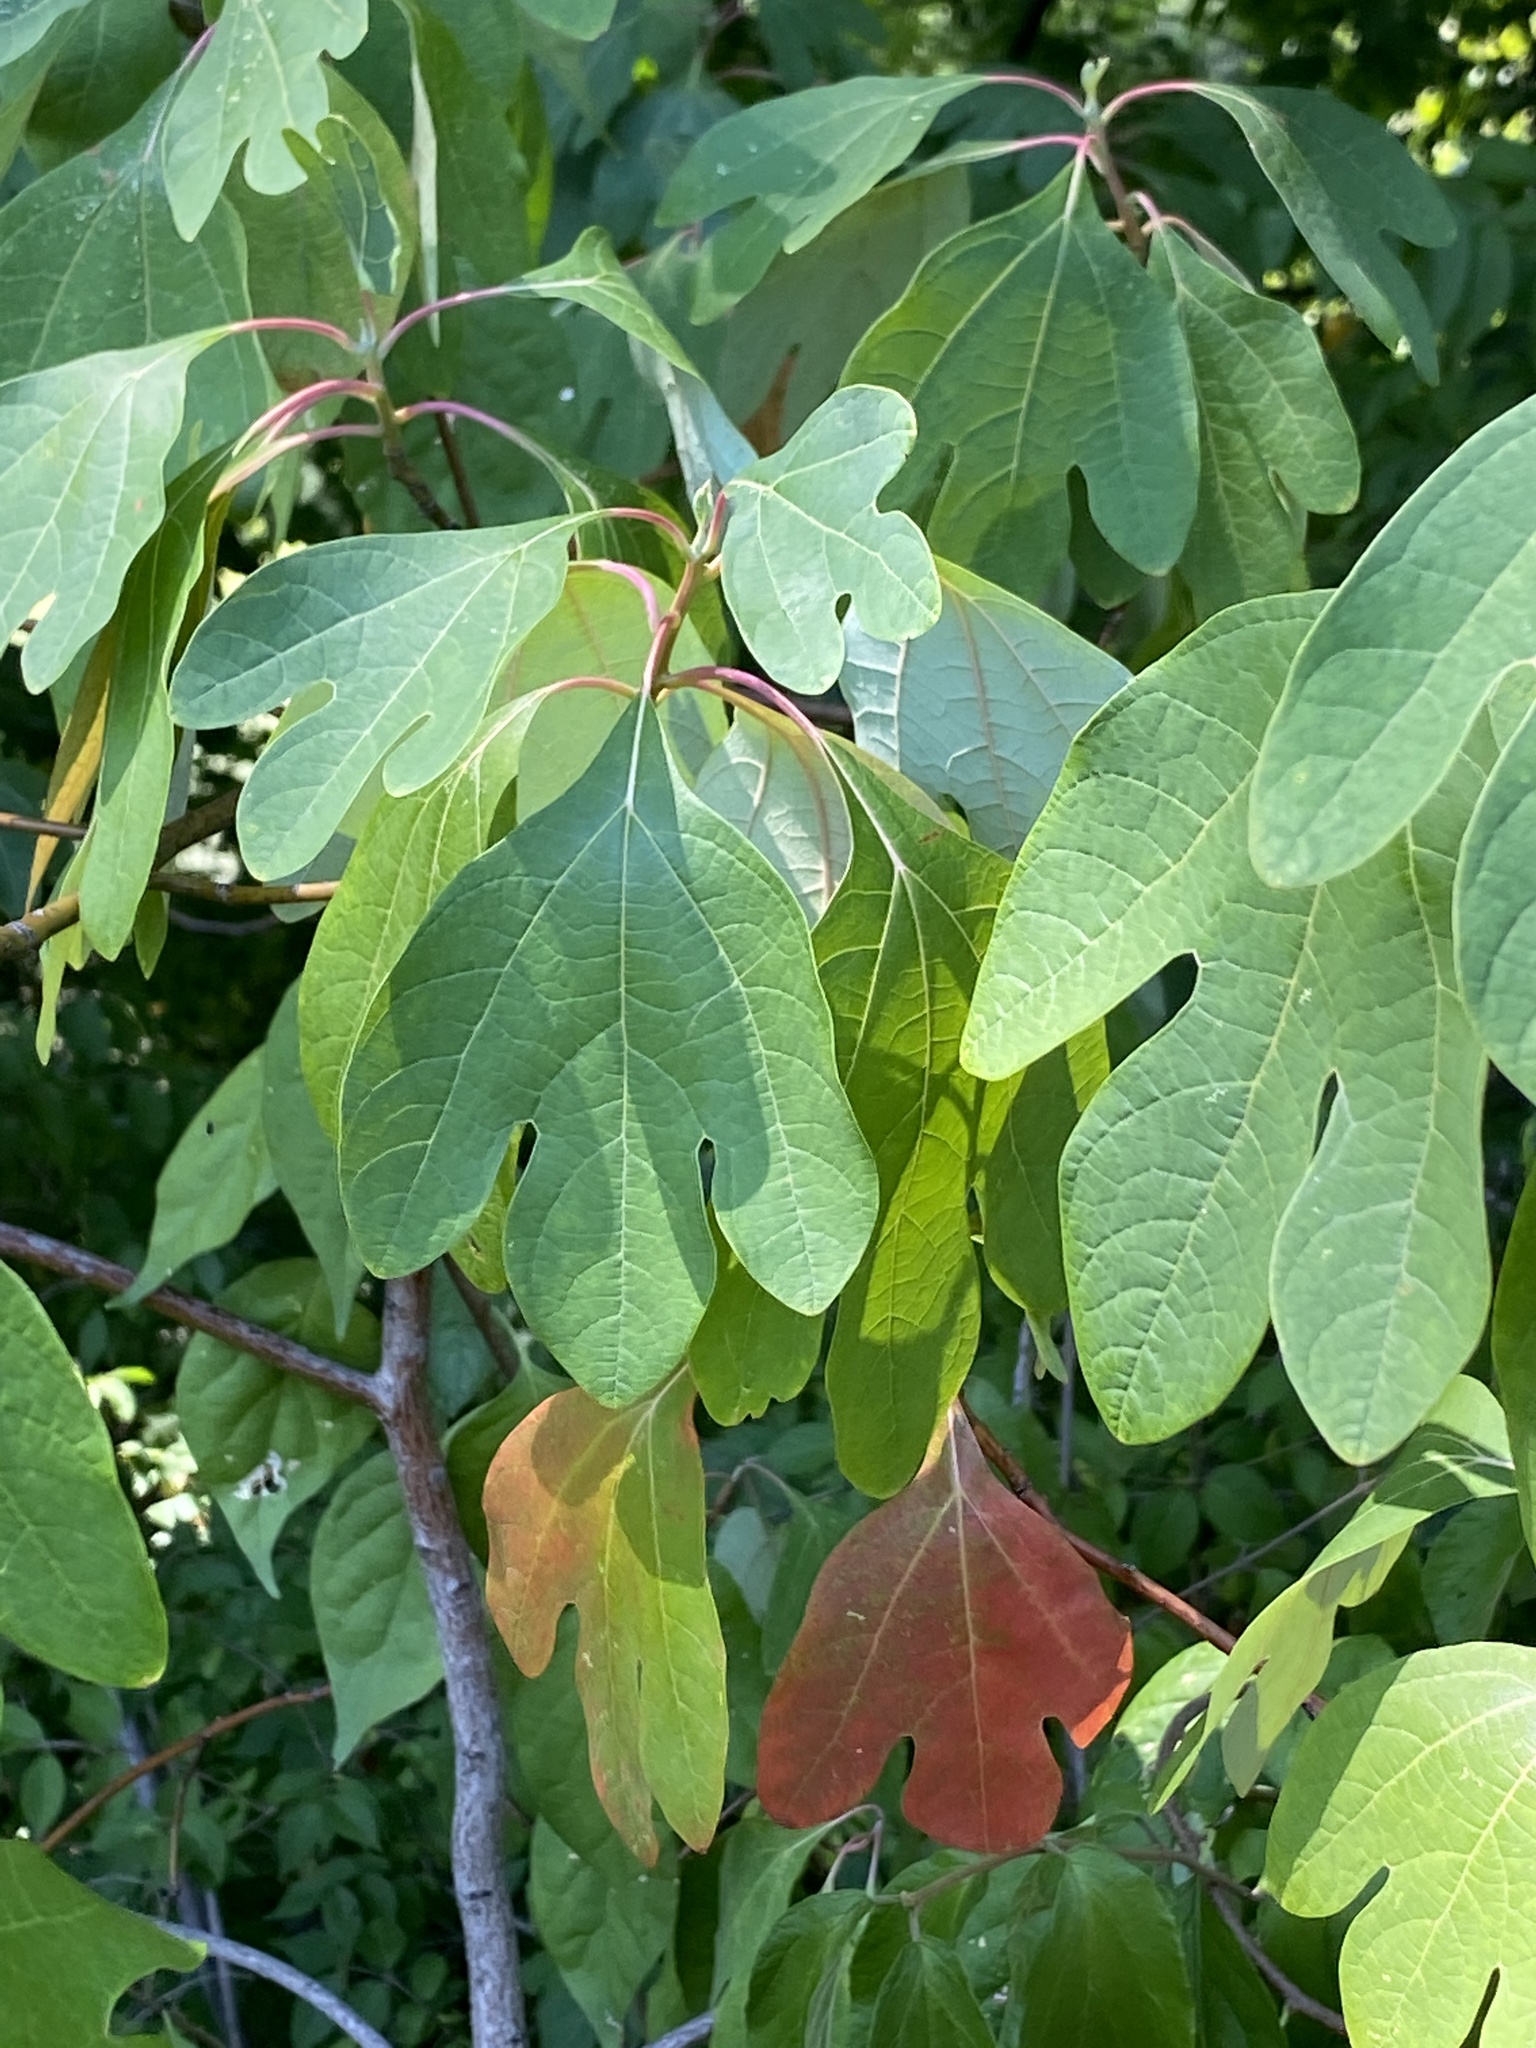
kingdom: Plantae
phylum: Tracheophyta
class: Magnoliopsida
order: Laurales
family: Lauraceae
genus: Sassafras
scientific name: Sassafras albidum
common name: Sassafras
